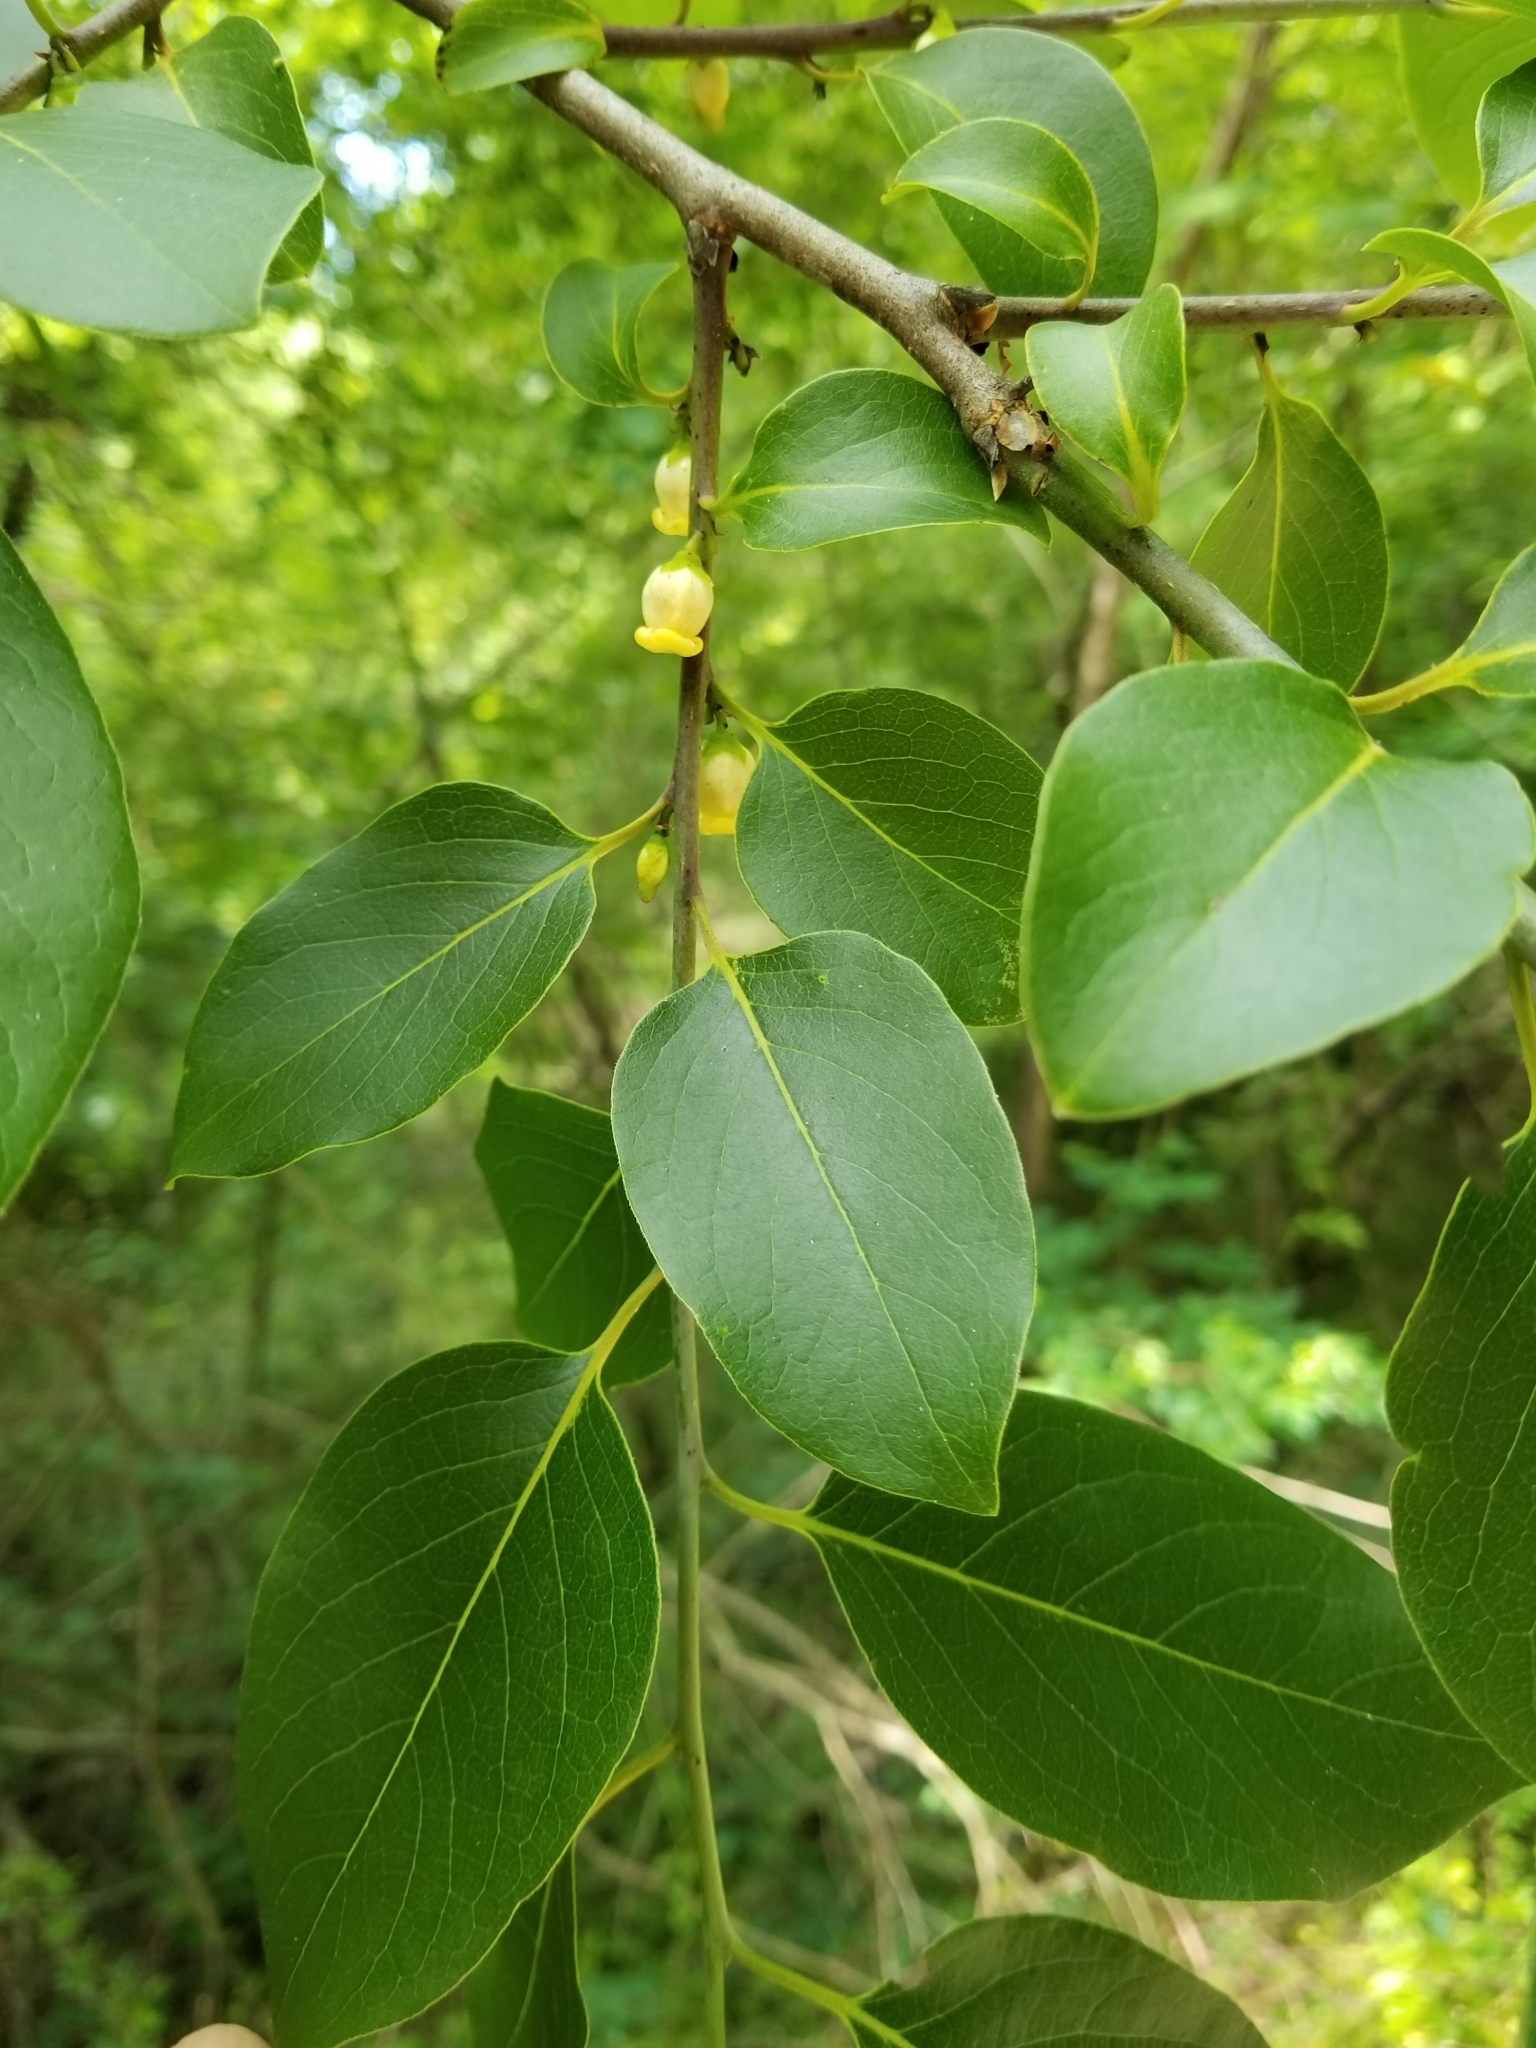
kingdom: Plantae
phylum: Tracheophyta
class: Magnoliopsida
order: Ericales
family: Ebenaceae
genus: Diospyros
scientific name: Diospyros virginiana
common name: Persimmon
